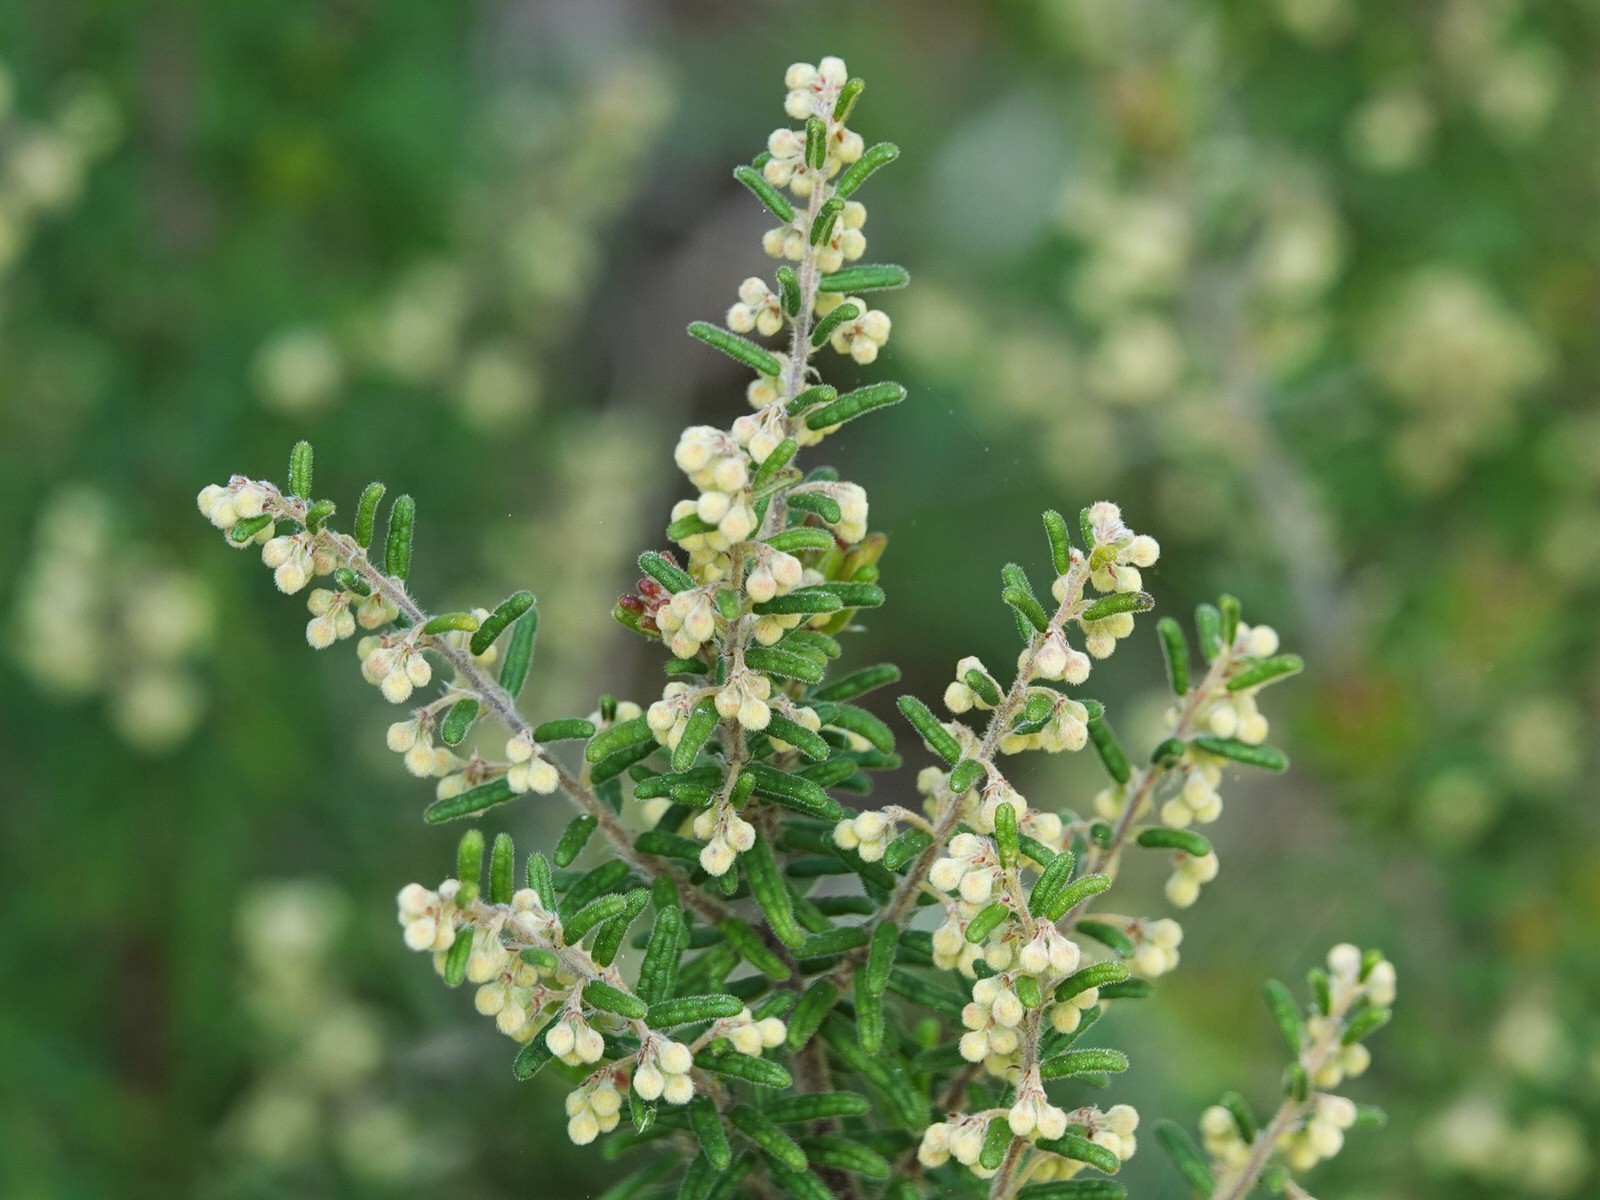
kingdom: Plantae
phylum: Tracheophyta
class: Magnoliopsida
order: Rosales
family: Rhamnaceae
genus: Pomaderris
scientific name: Pomaderris amoena
